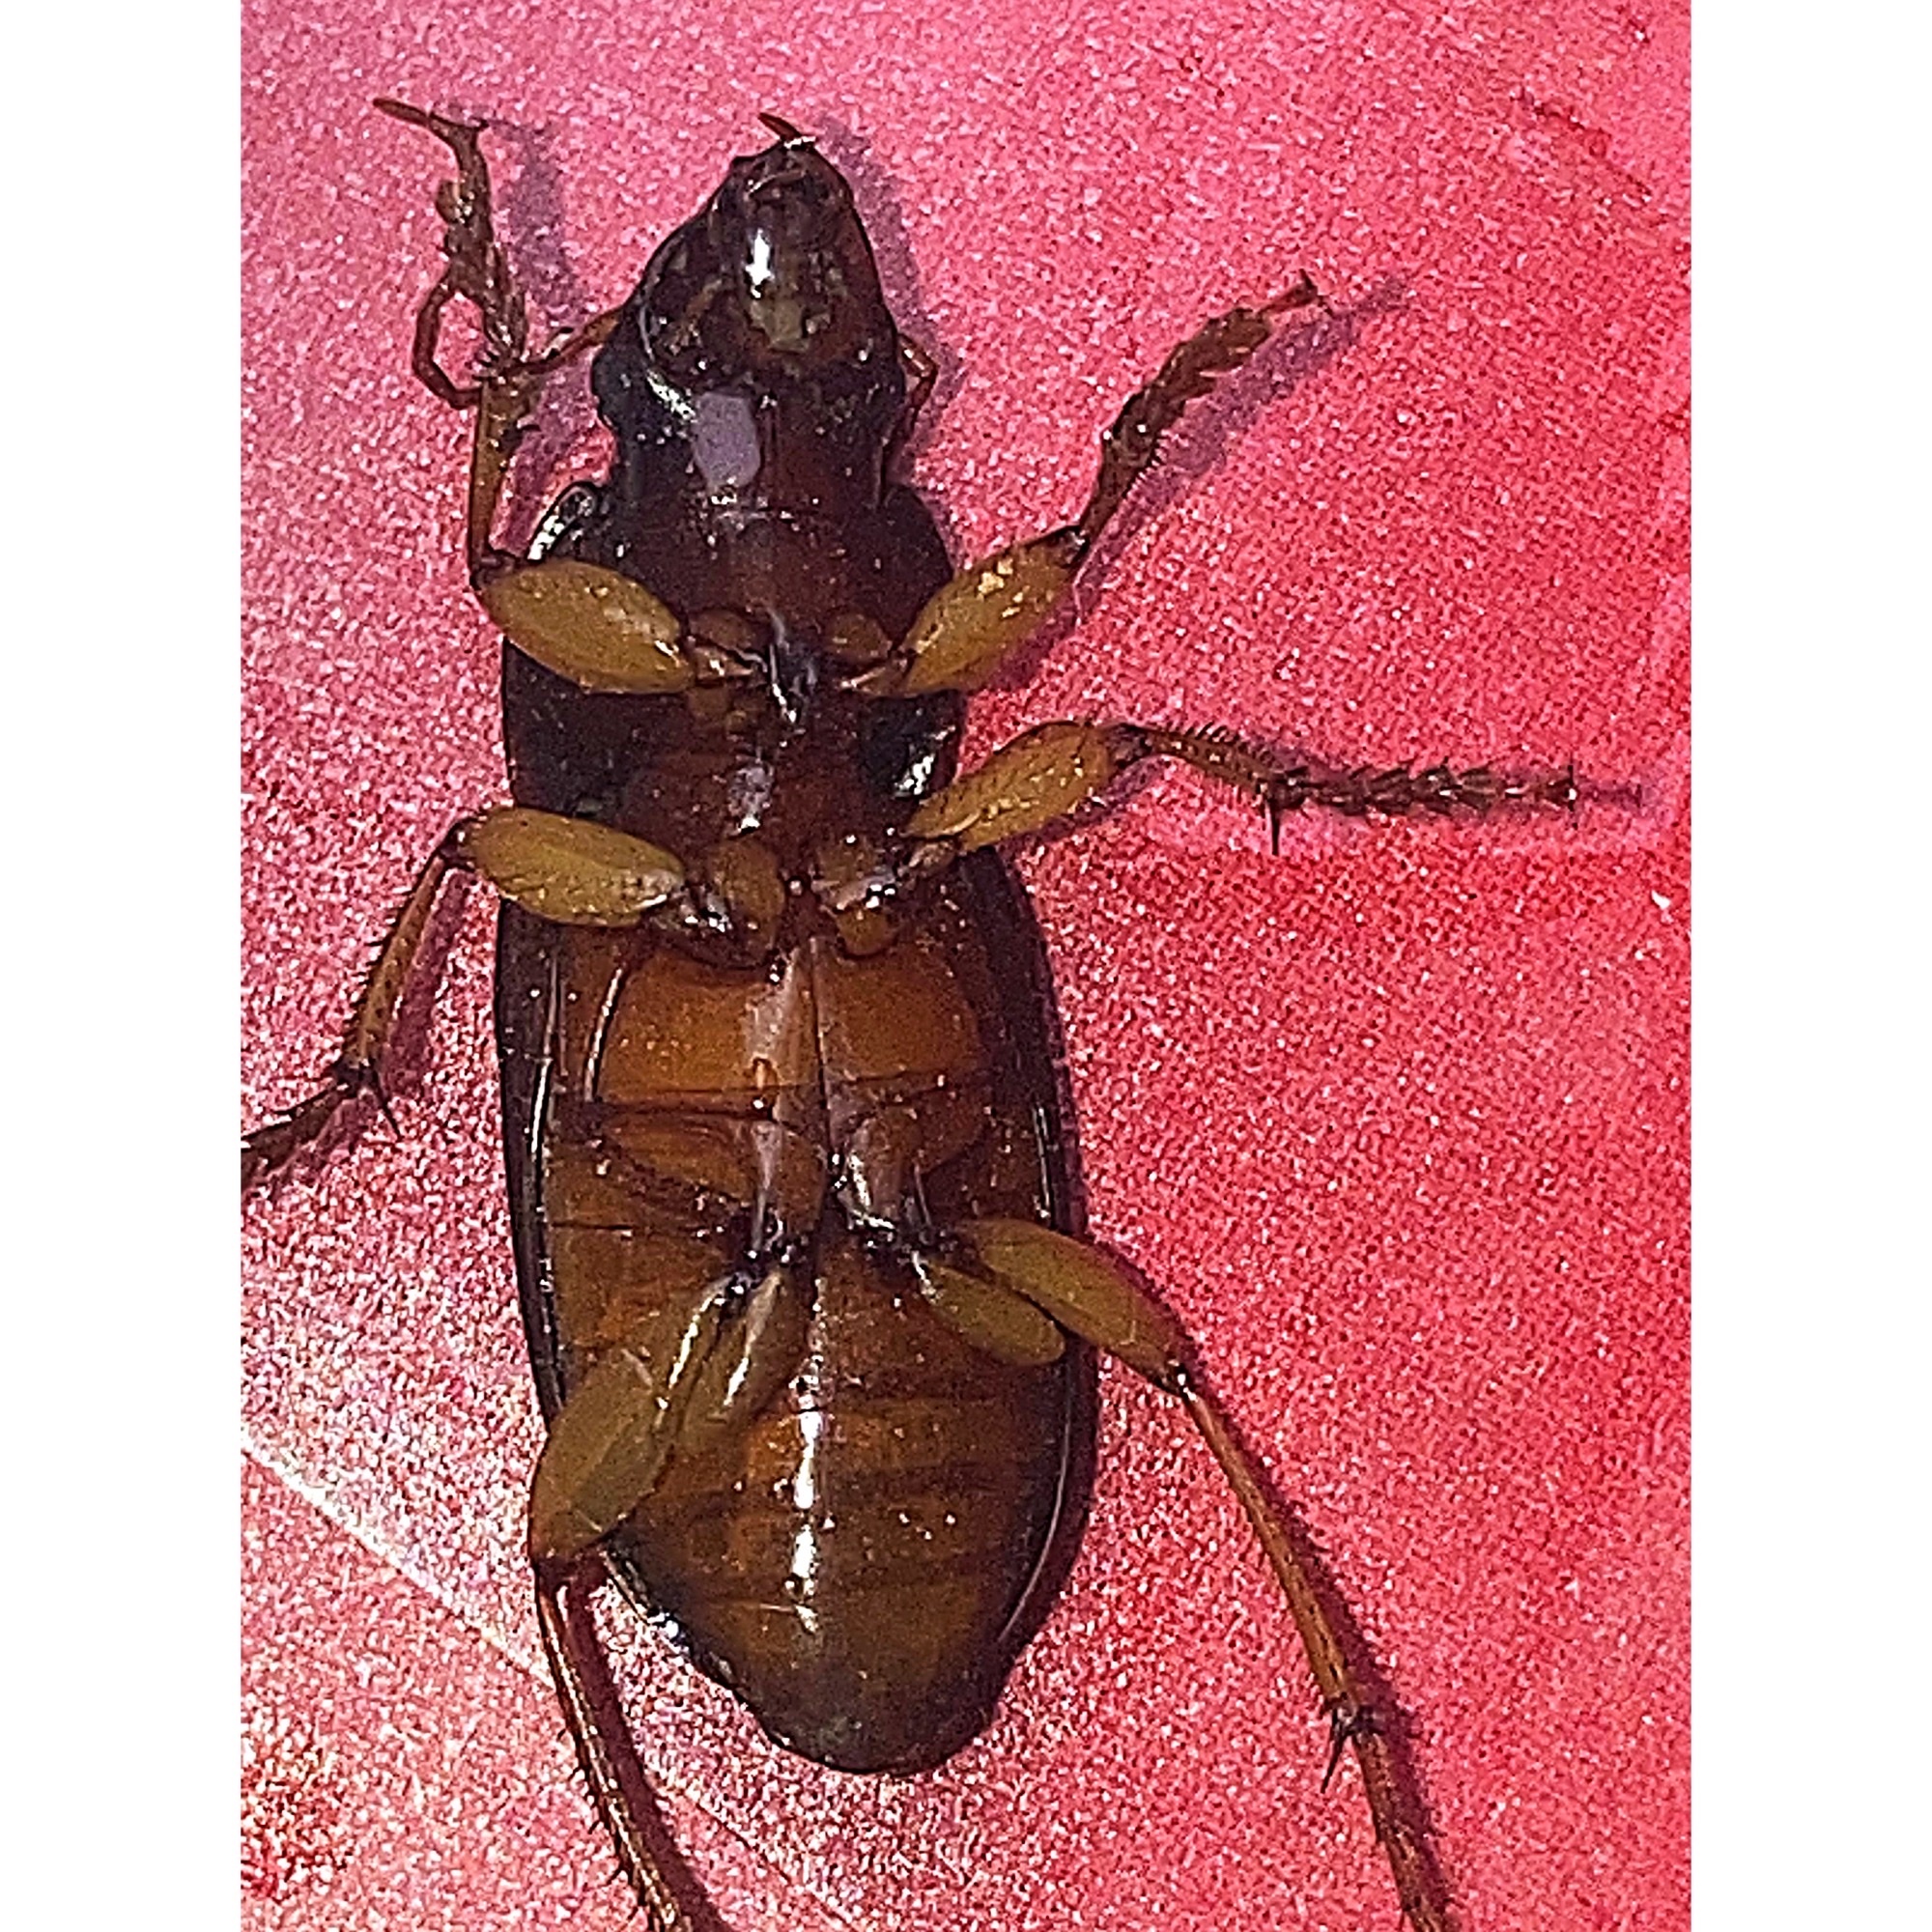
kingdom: Animalia
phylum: Arthropoda
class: Insecta
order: Coleoptera
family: Carabidae
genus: Harpalus
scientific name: Harpalus pensylvanicus
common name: Pennsylvania dingy ground beetle
